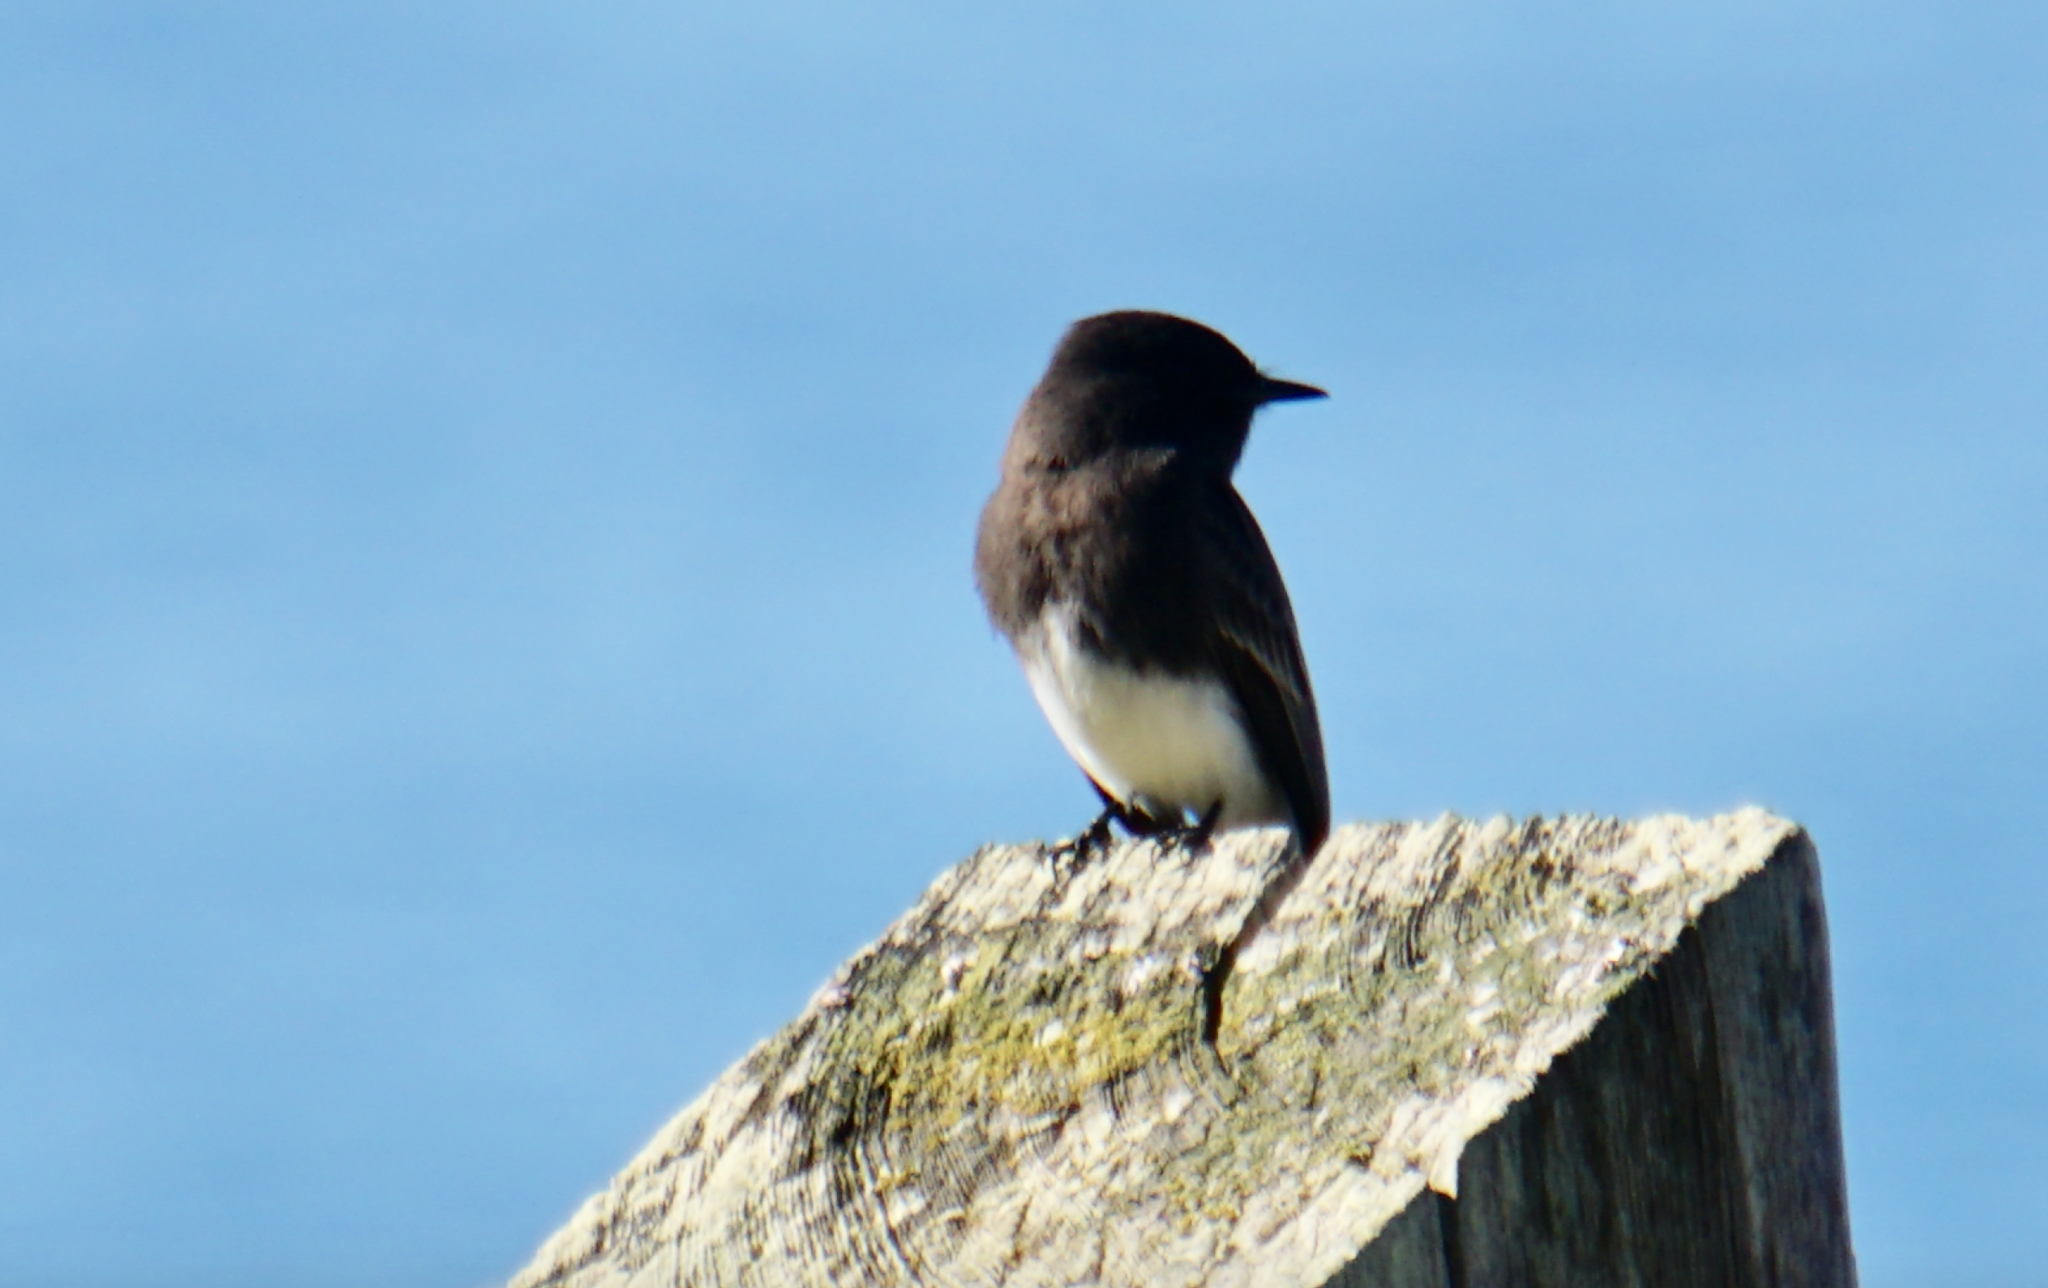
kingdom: Animalia
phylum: Chordata
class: Aves
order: Passeriformes
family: Tyrannidae
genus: Sayornis
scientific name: Sayornis nigricans
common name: Black phoebe
